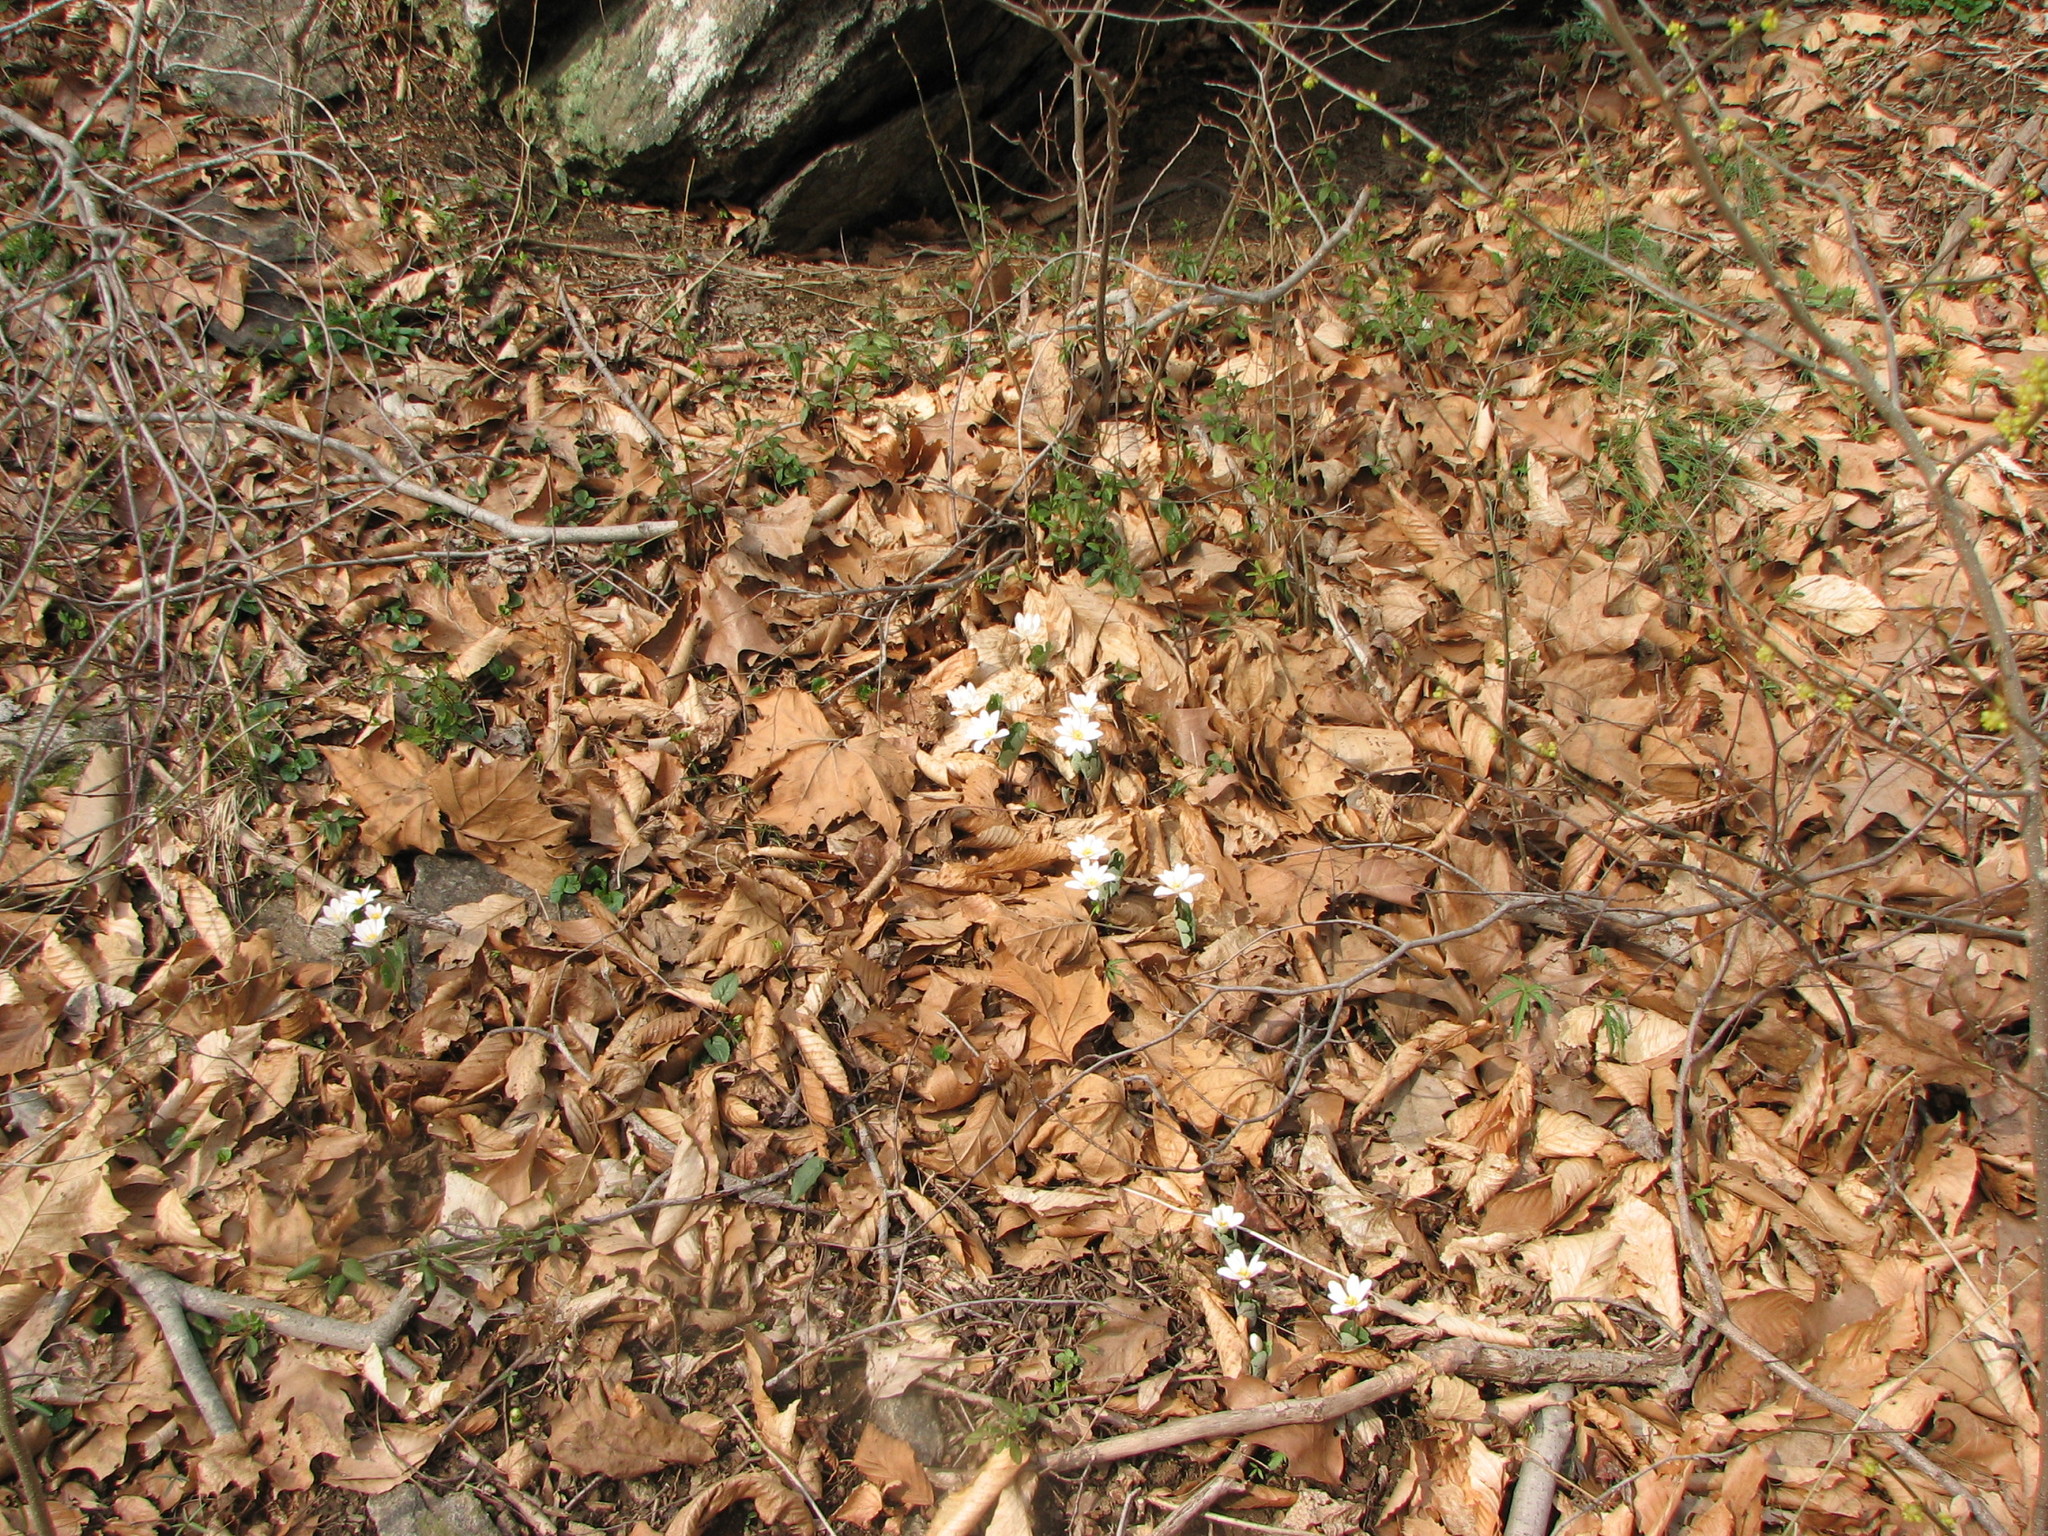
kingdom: Plantae
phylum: Tracheophyta
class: Magnoliopsida
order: Ranunculales
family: Papaveraceae
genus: Sanguinaria
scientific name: Sanguinaria canadensis
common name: Bloodroot
